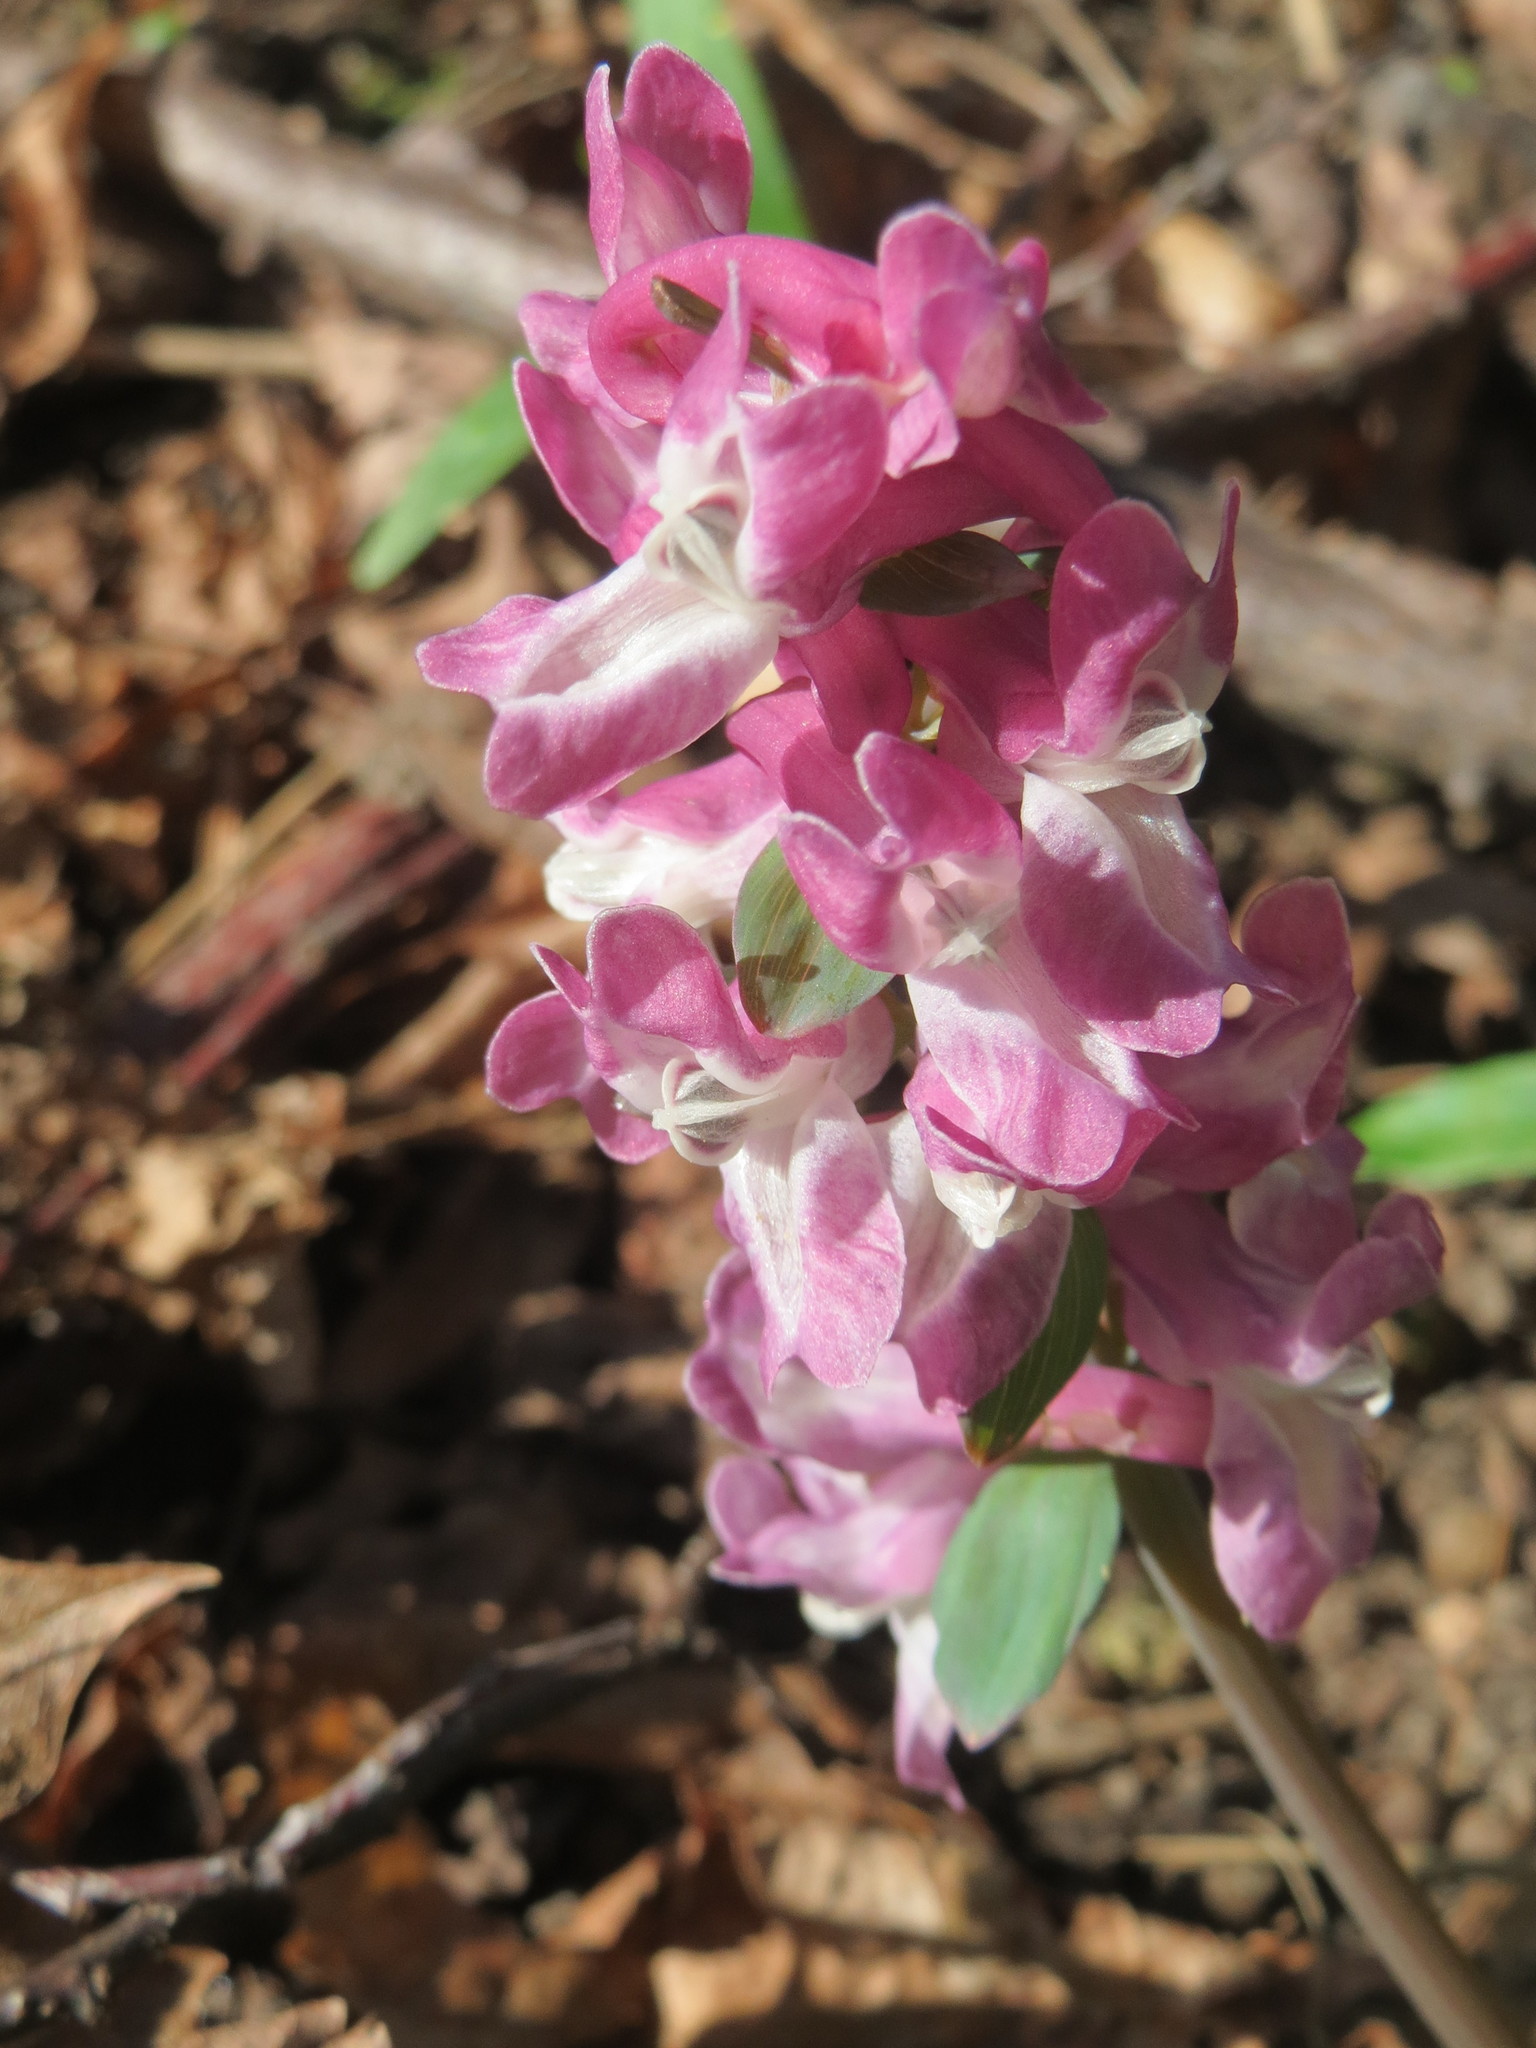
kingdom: Plantae
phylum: Tracheophyta
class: Magnoliopsida
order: Ranunculales
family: Papaveraceae
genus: Corydalis
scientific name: Corydalis cava
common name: Hollowroot
